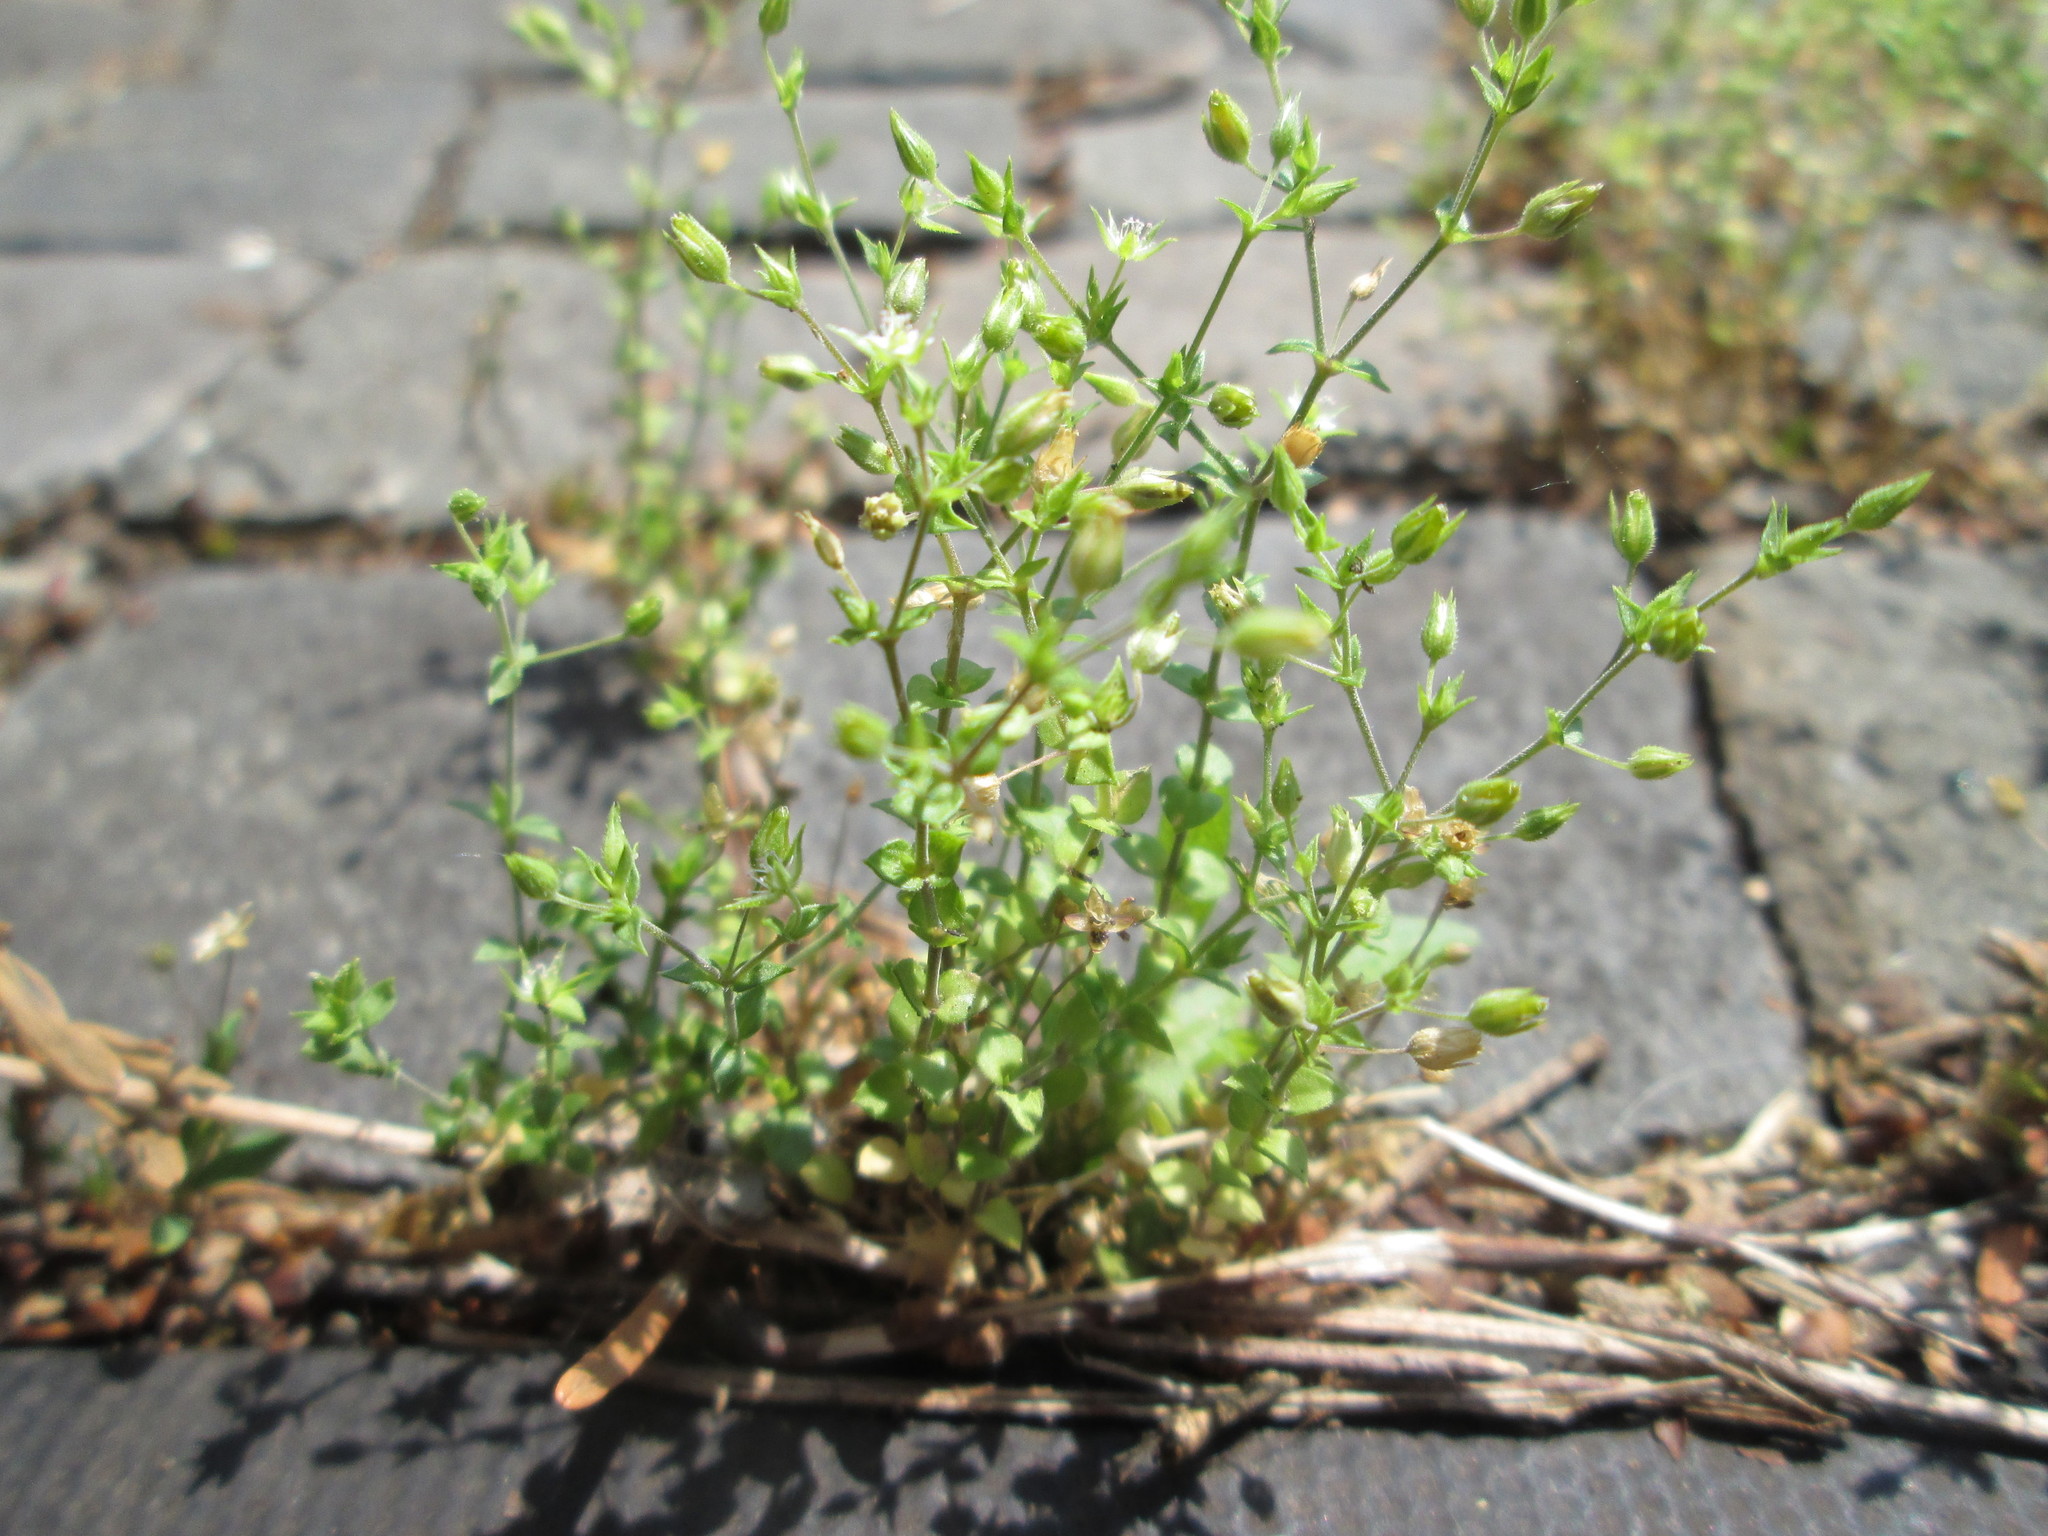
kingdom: Plantae
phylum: Tracheophyta
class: Magnoliopsida
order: Caryophyllales
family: Caryophyllaceae
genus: Arenaria
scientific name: Arenaria serpyllifolia
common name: Thyme-leaved sandwort
